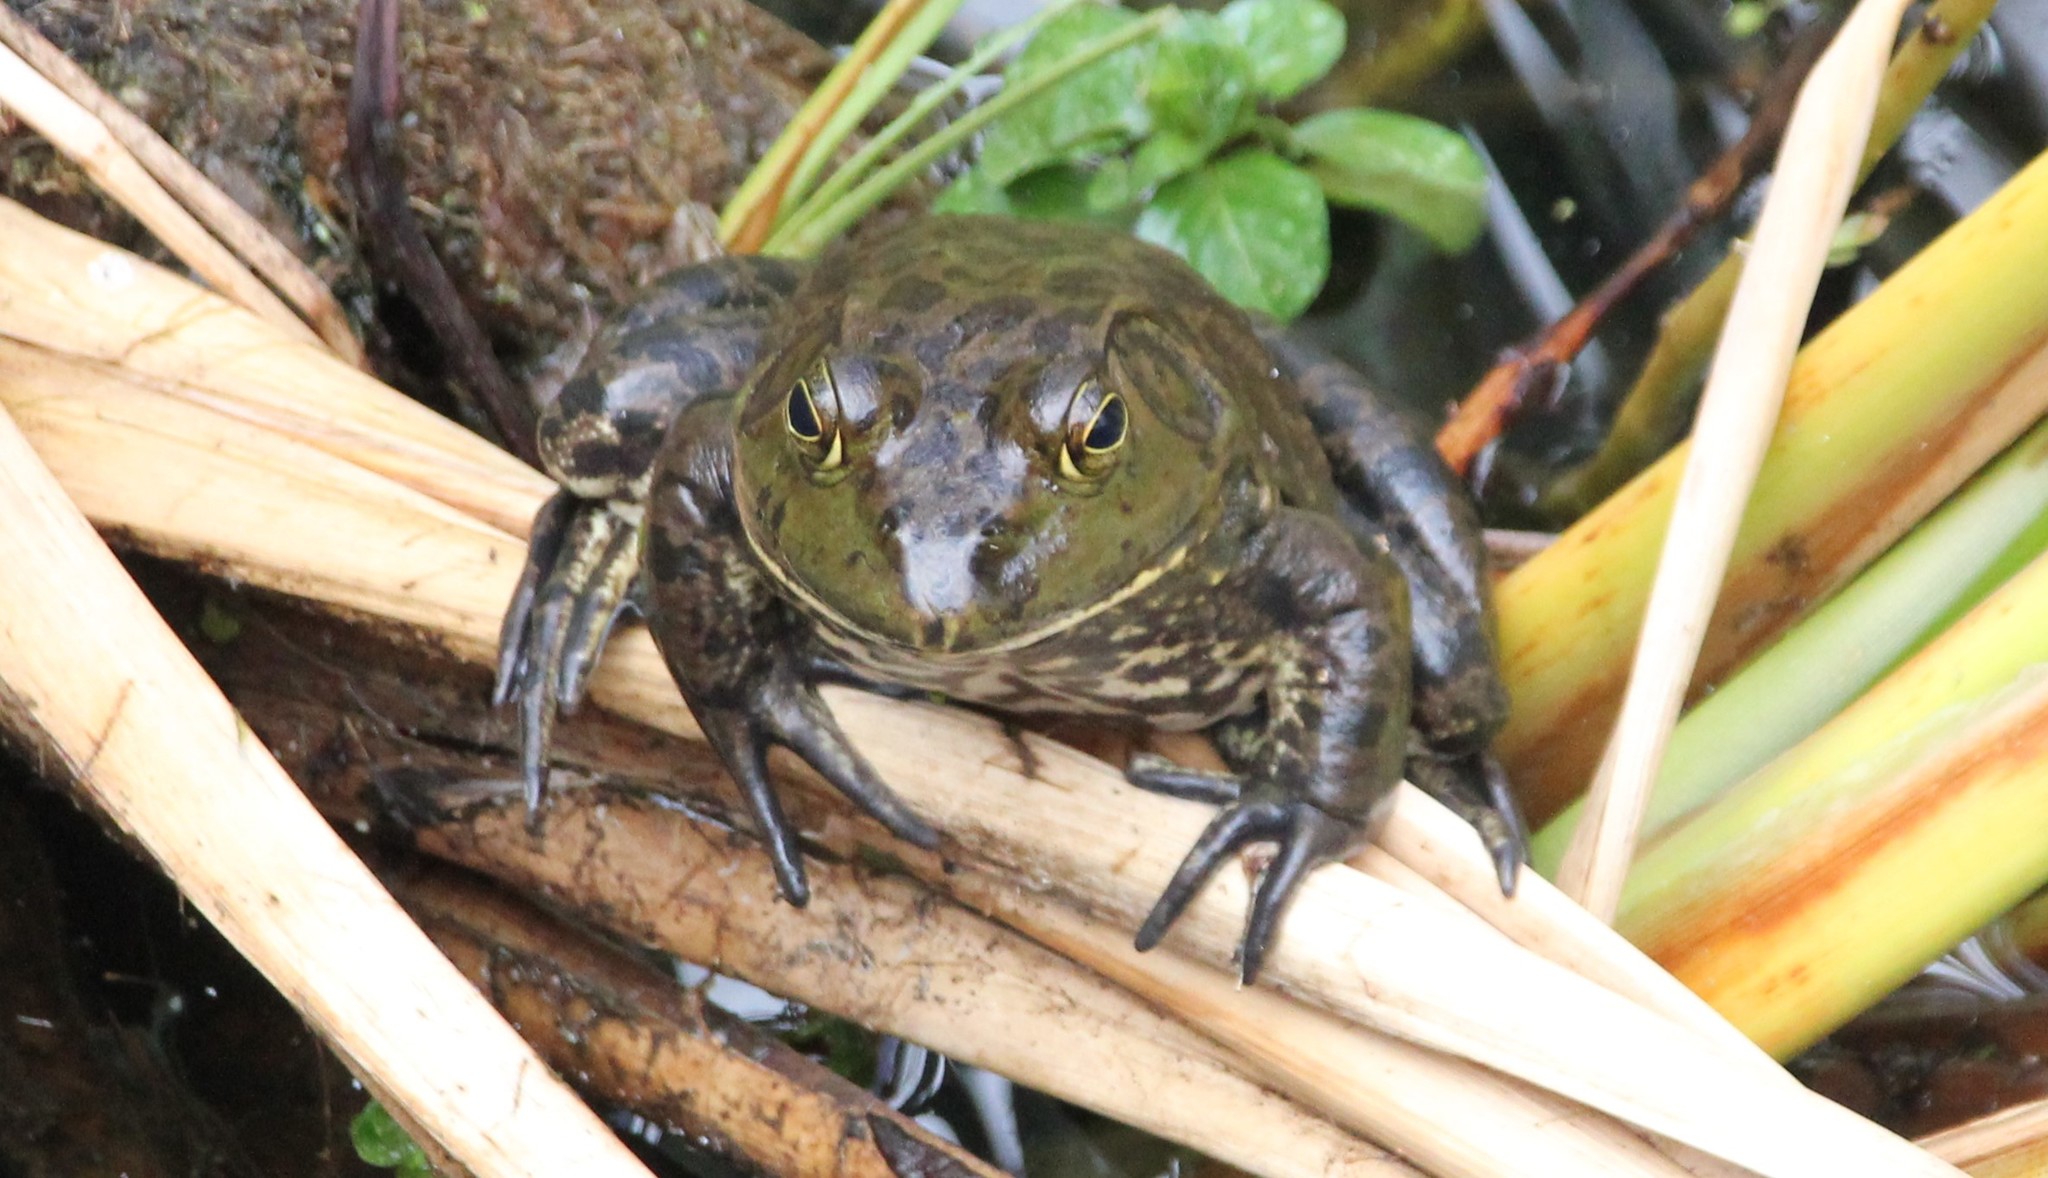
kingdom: Animalia
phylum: Chordata
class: Amphibia
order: Anura
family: Ranidae
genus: Lithobates
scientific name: Lithobates catesbeianus
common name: American bullfrog
